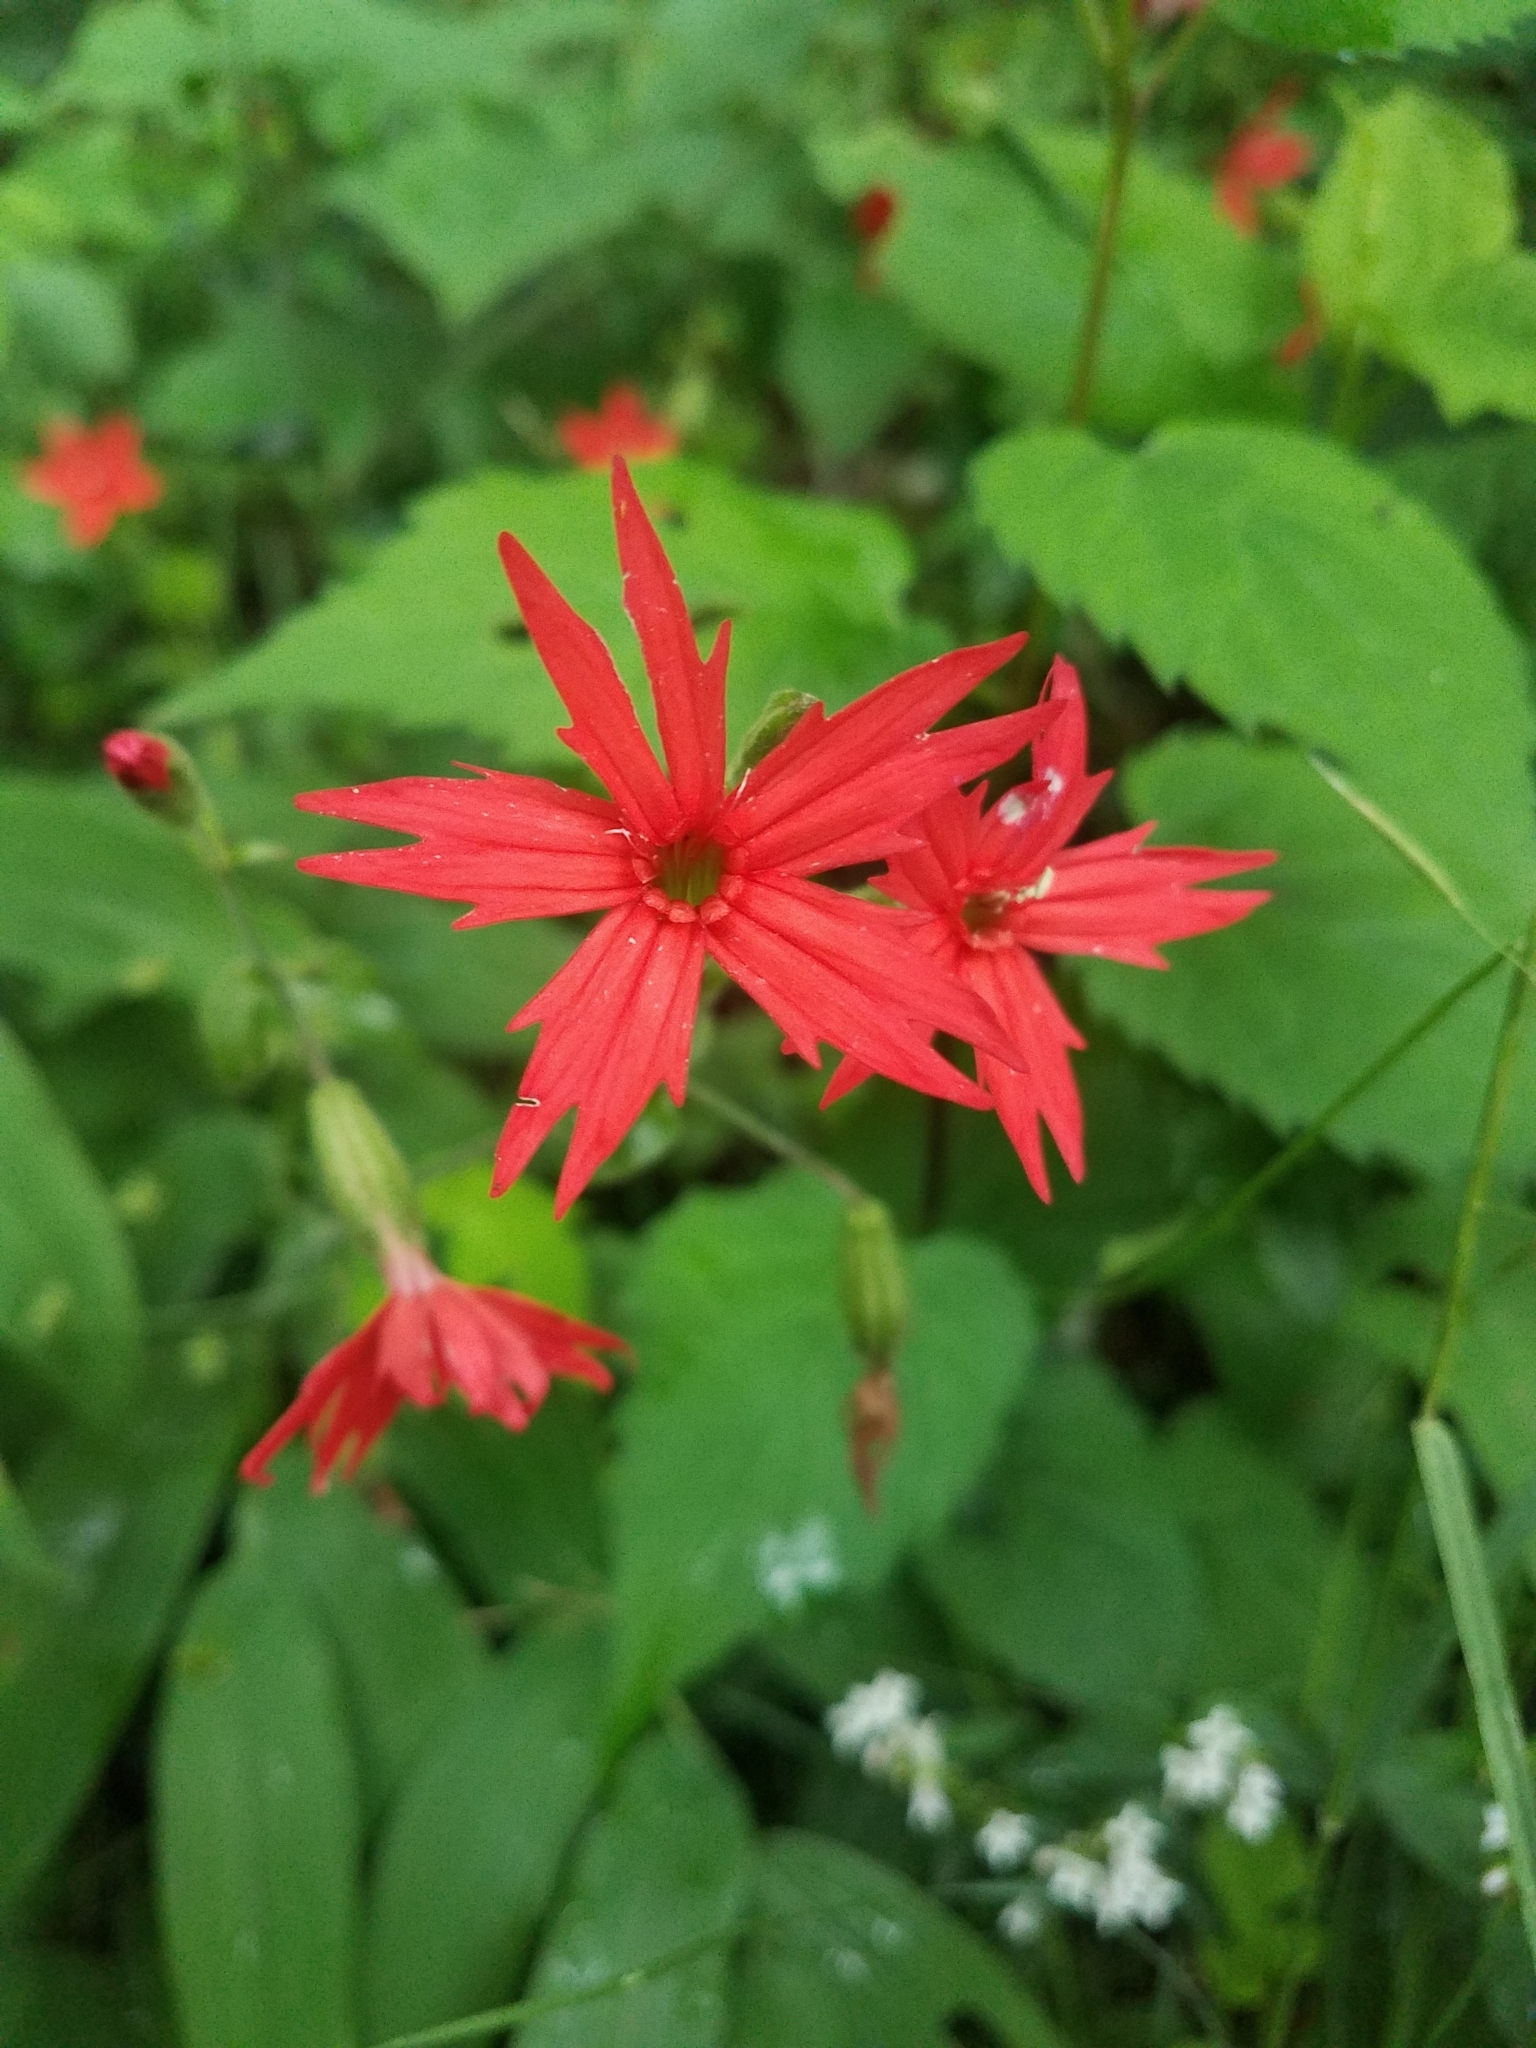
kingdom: Plantae
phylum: Tracheophyta
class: Magnoliopsida
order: Caryophyllales
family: Caryophyllaceae
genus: Silene
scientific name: Silene virginica
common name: Fire-pink
